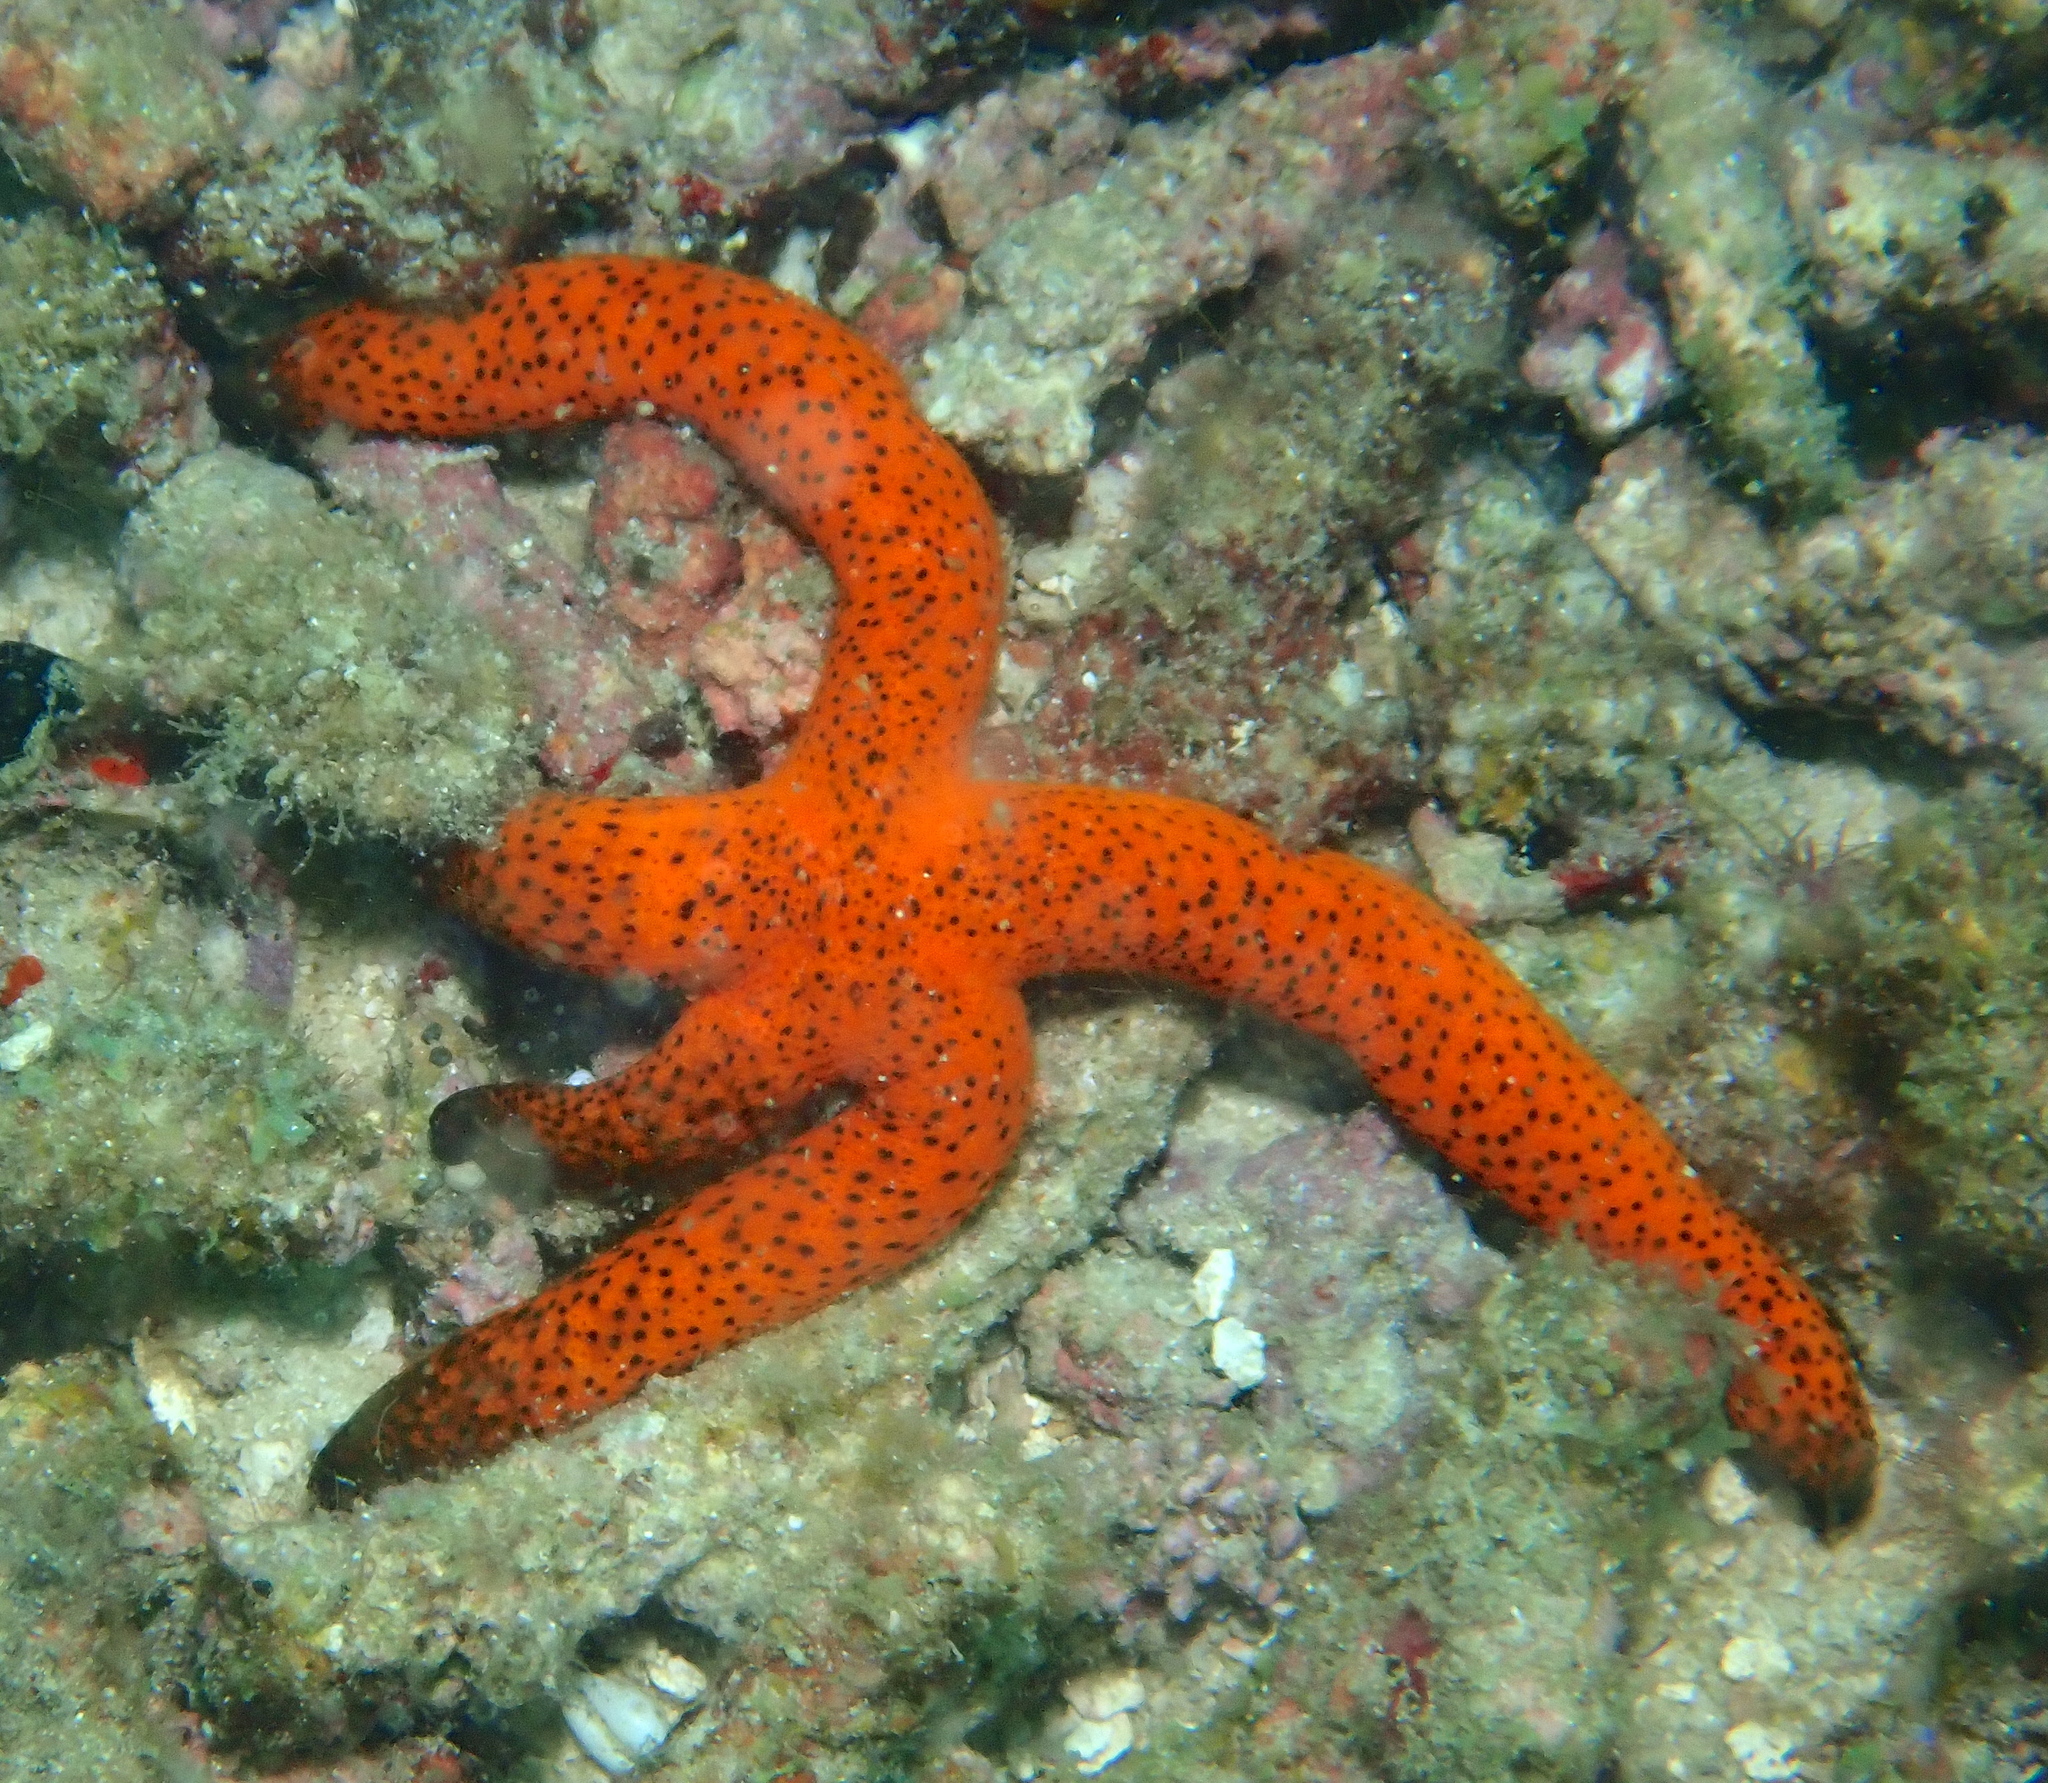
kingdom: Animalia
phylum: Echinodermata
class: Asteroidea
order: Spinulosida
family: Echinasteridae
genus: Echinaster
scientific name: Echinaster luzonicus
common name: Luzon seastar
